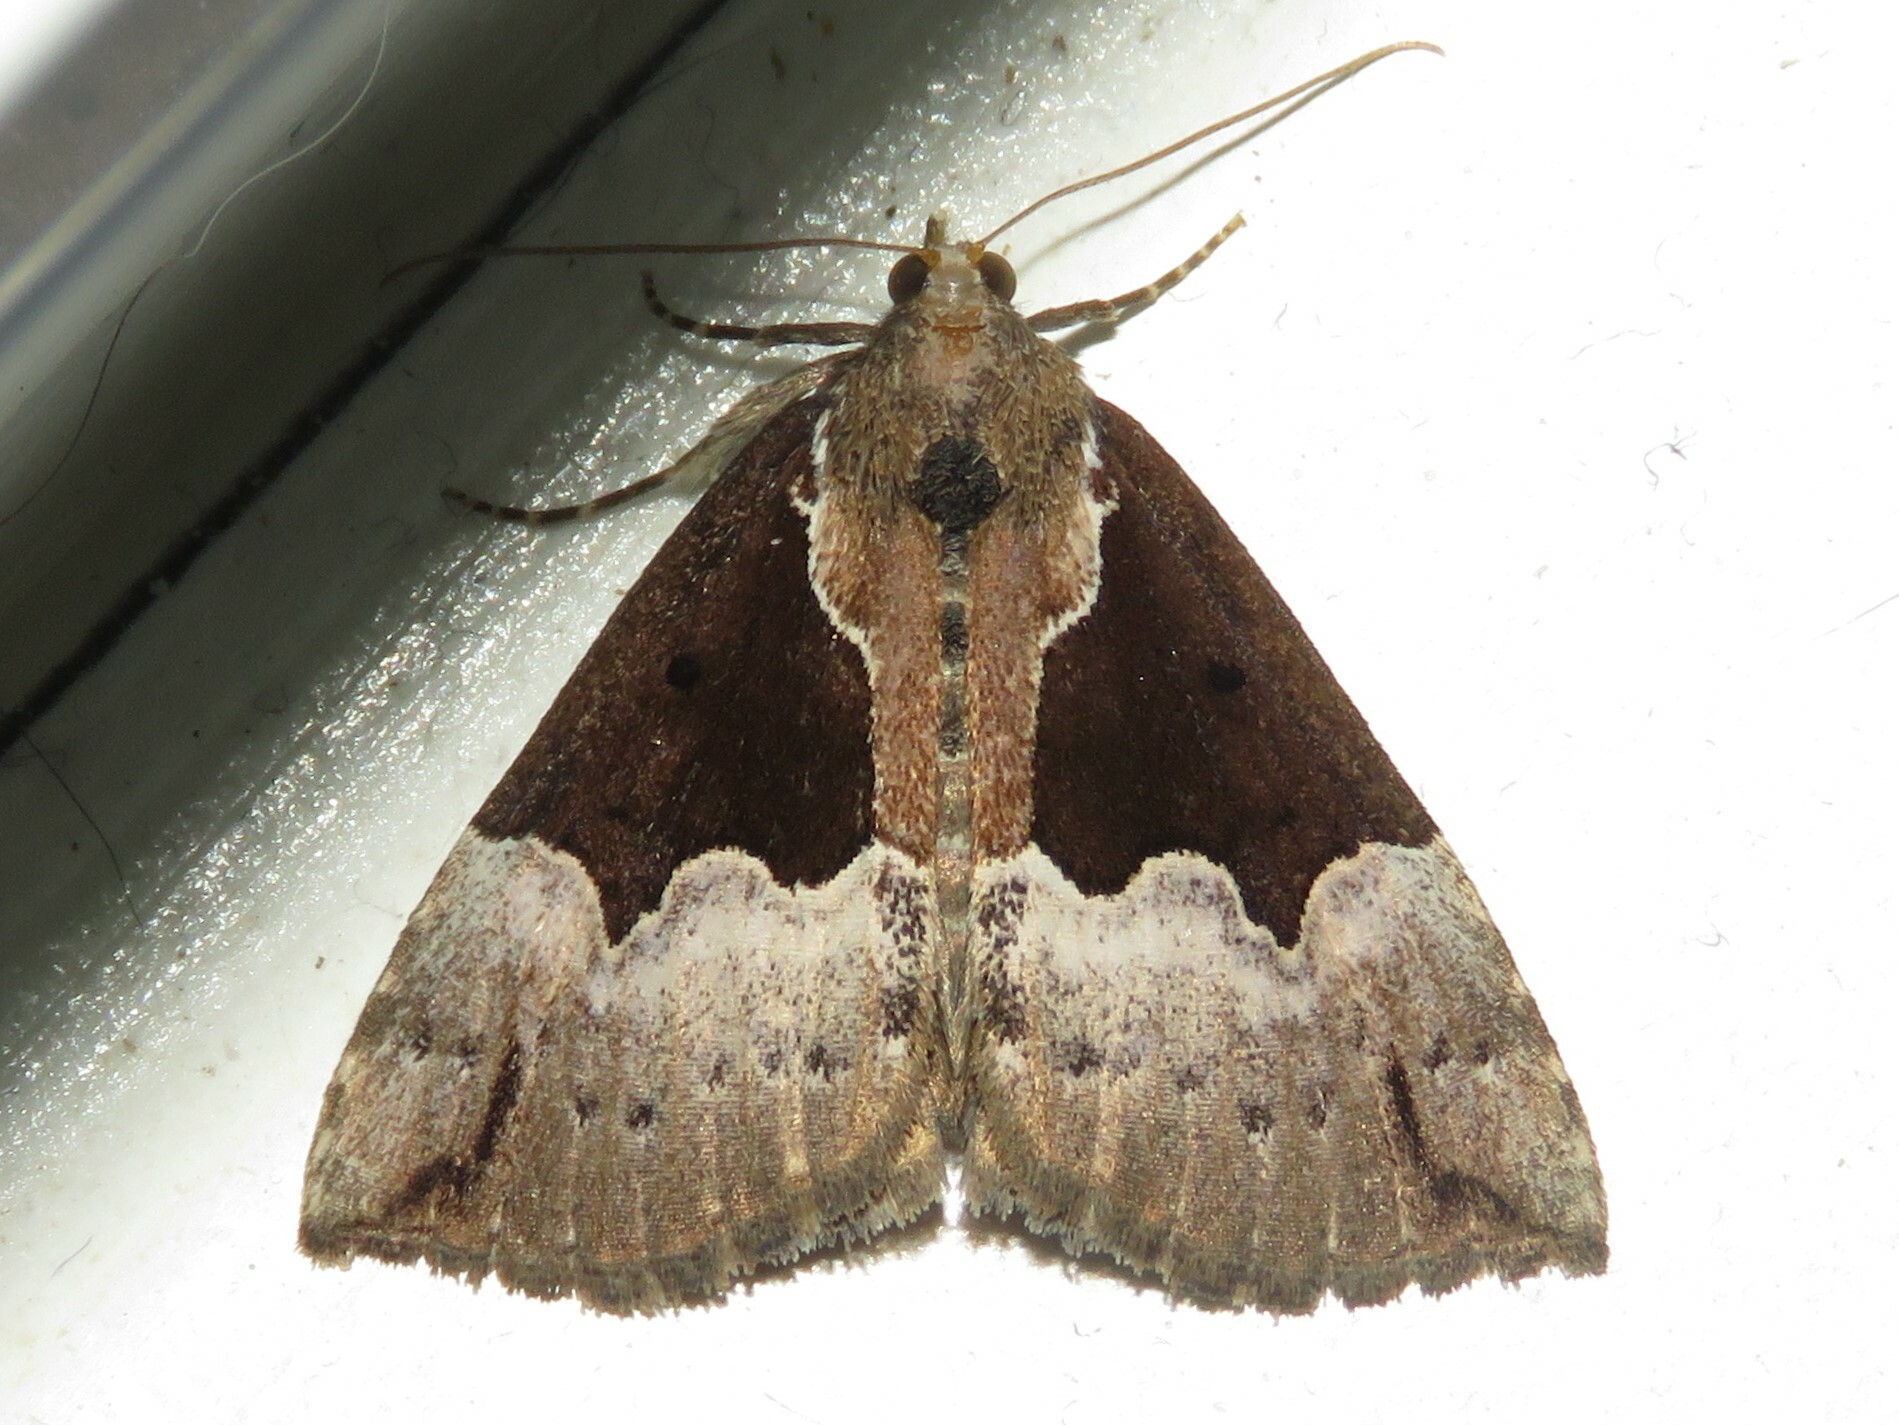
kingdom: Animalia
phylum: Arthropoda
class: Insecta
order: Lepidoptera
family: Erebidae
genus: Hypena
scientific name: Hypena bijugalis
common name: Dimorphic bomolocha moth
